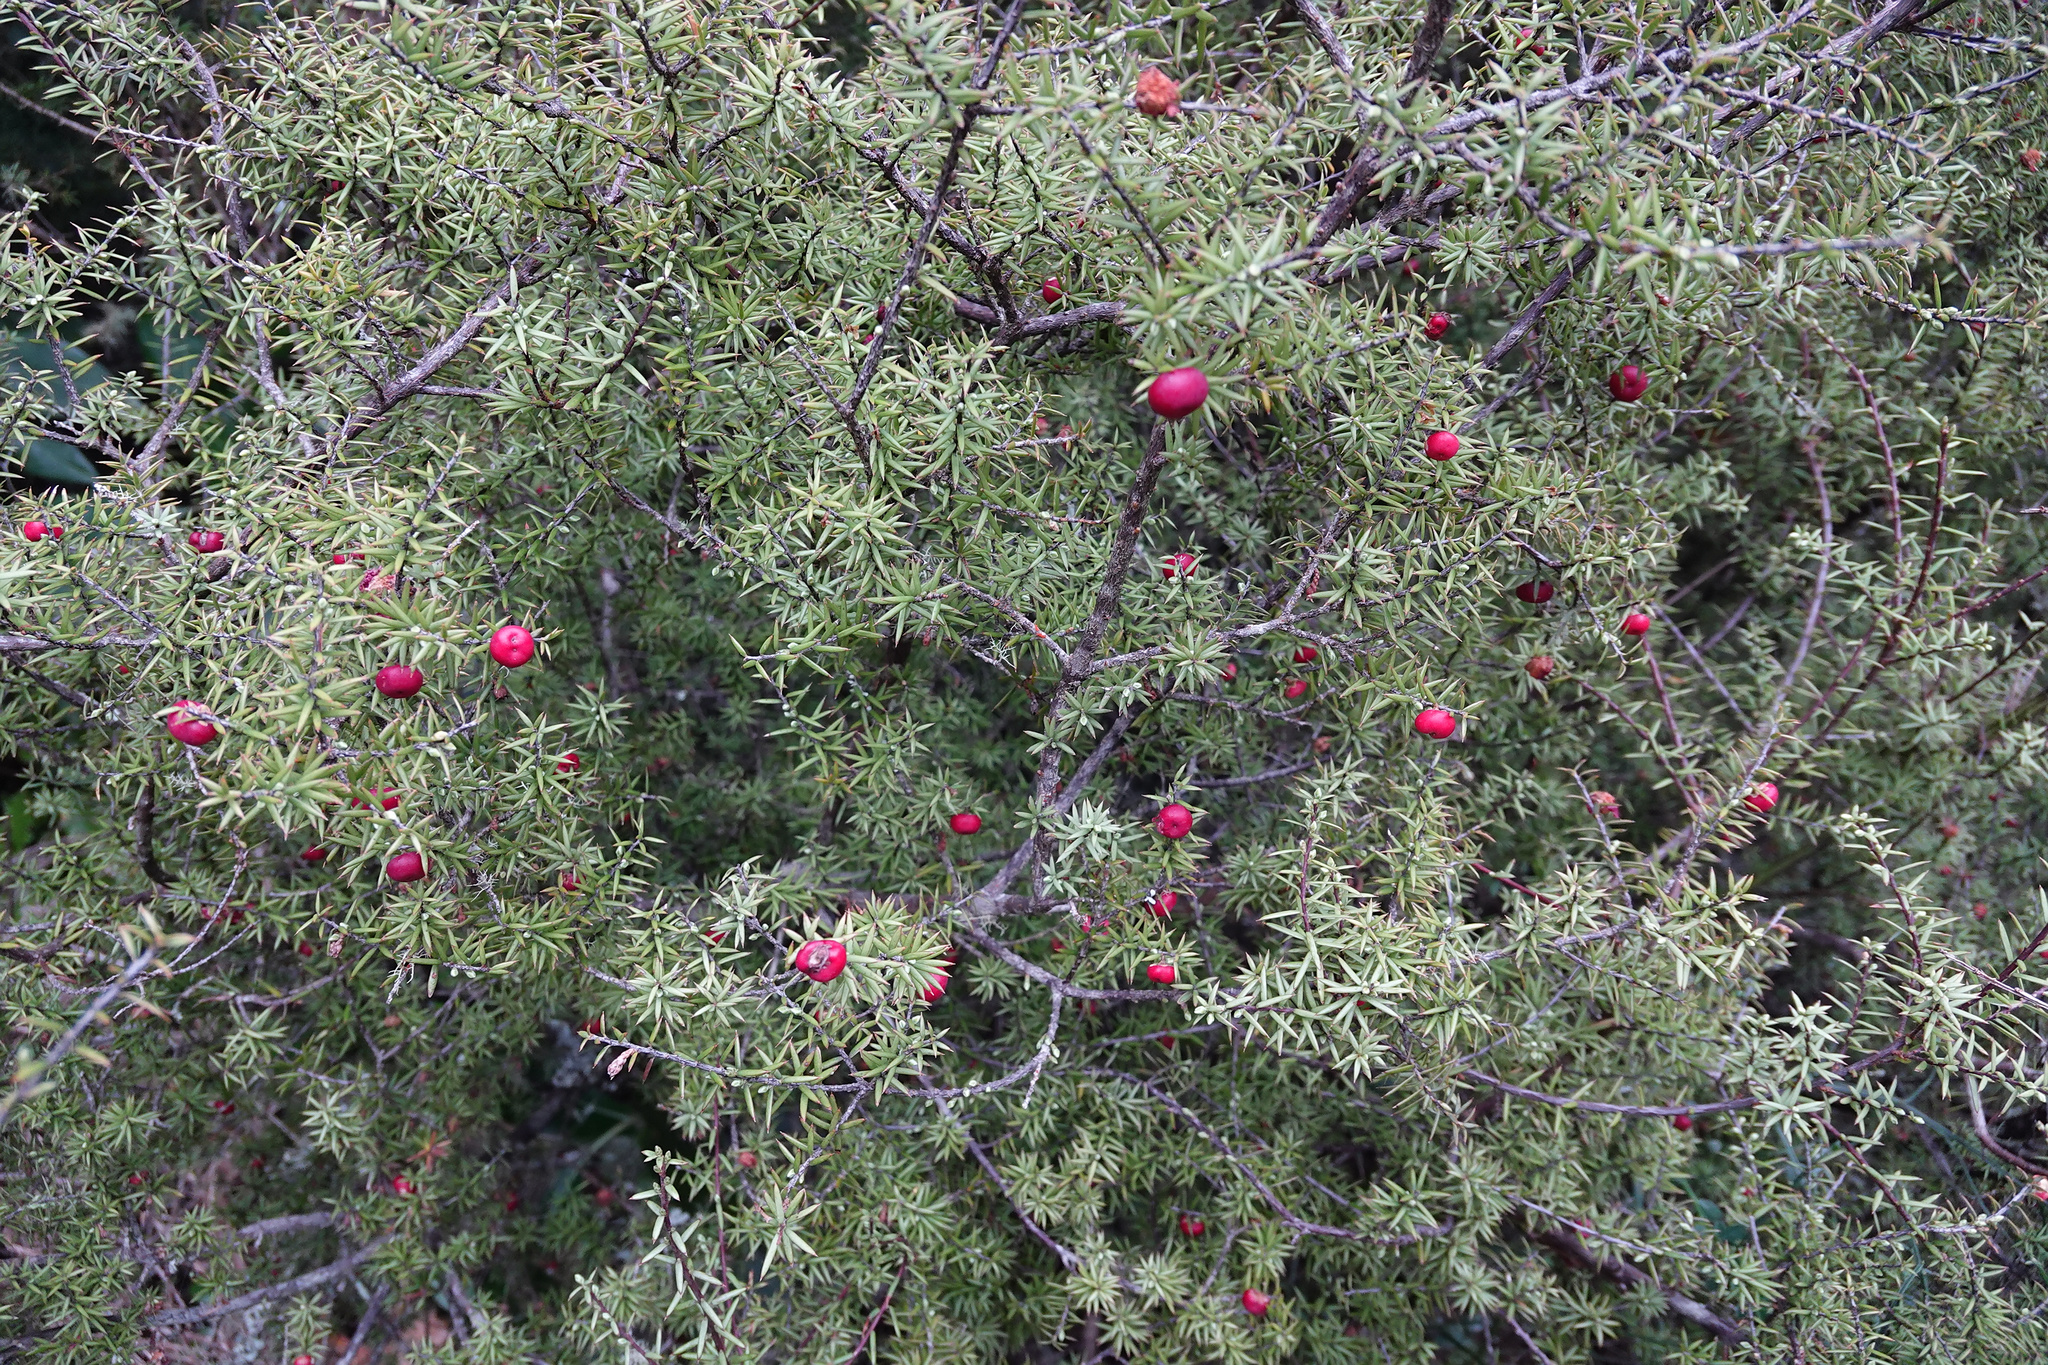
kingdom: Plantae
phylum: Tracheophyta
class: Magnoliopsida
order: Ericales
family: Ericaceae
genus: Leptecophylla
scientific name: Leptecophylla juniperina
